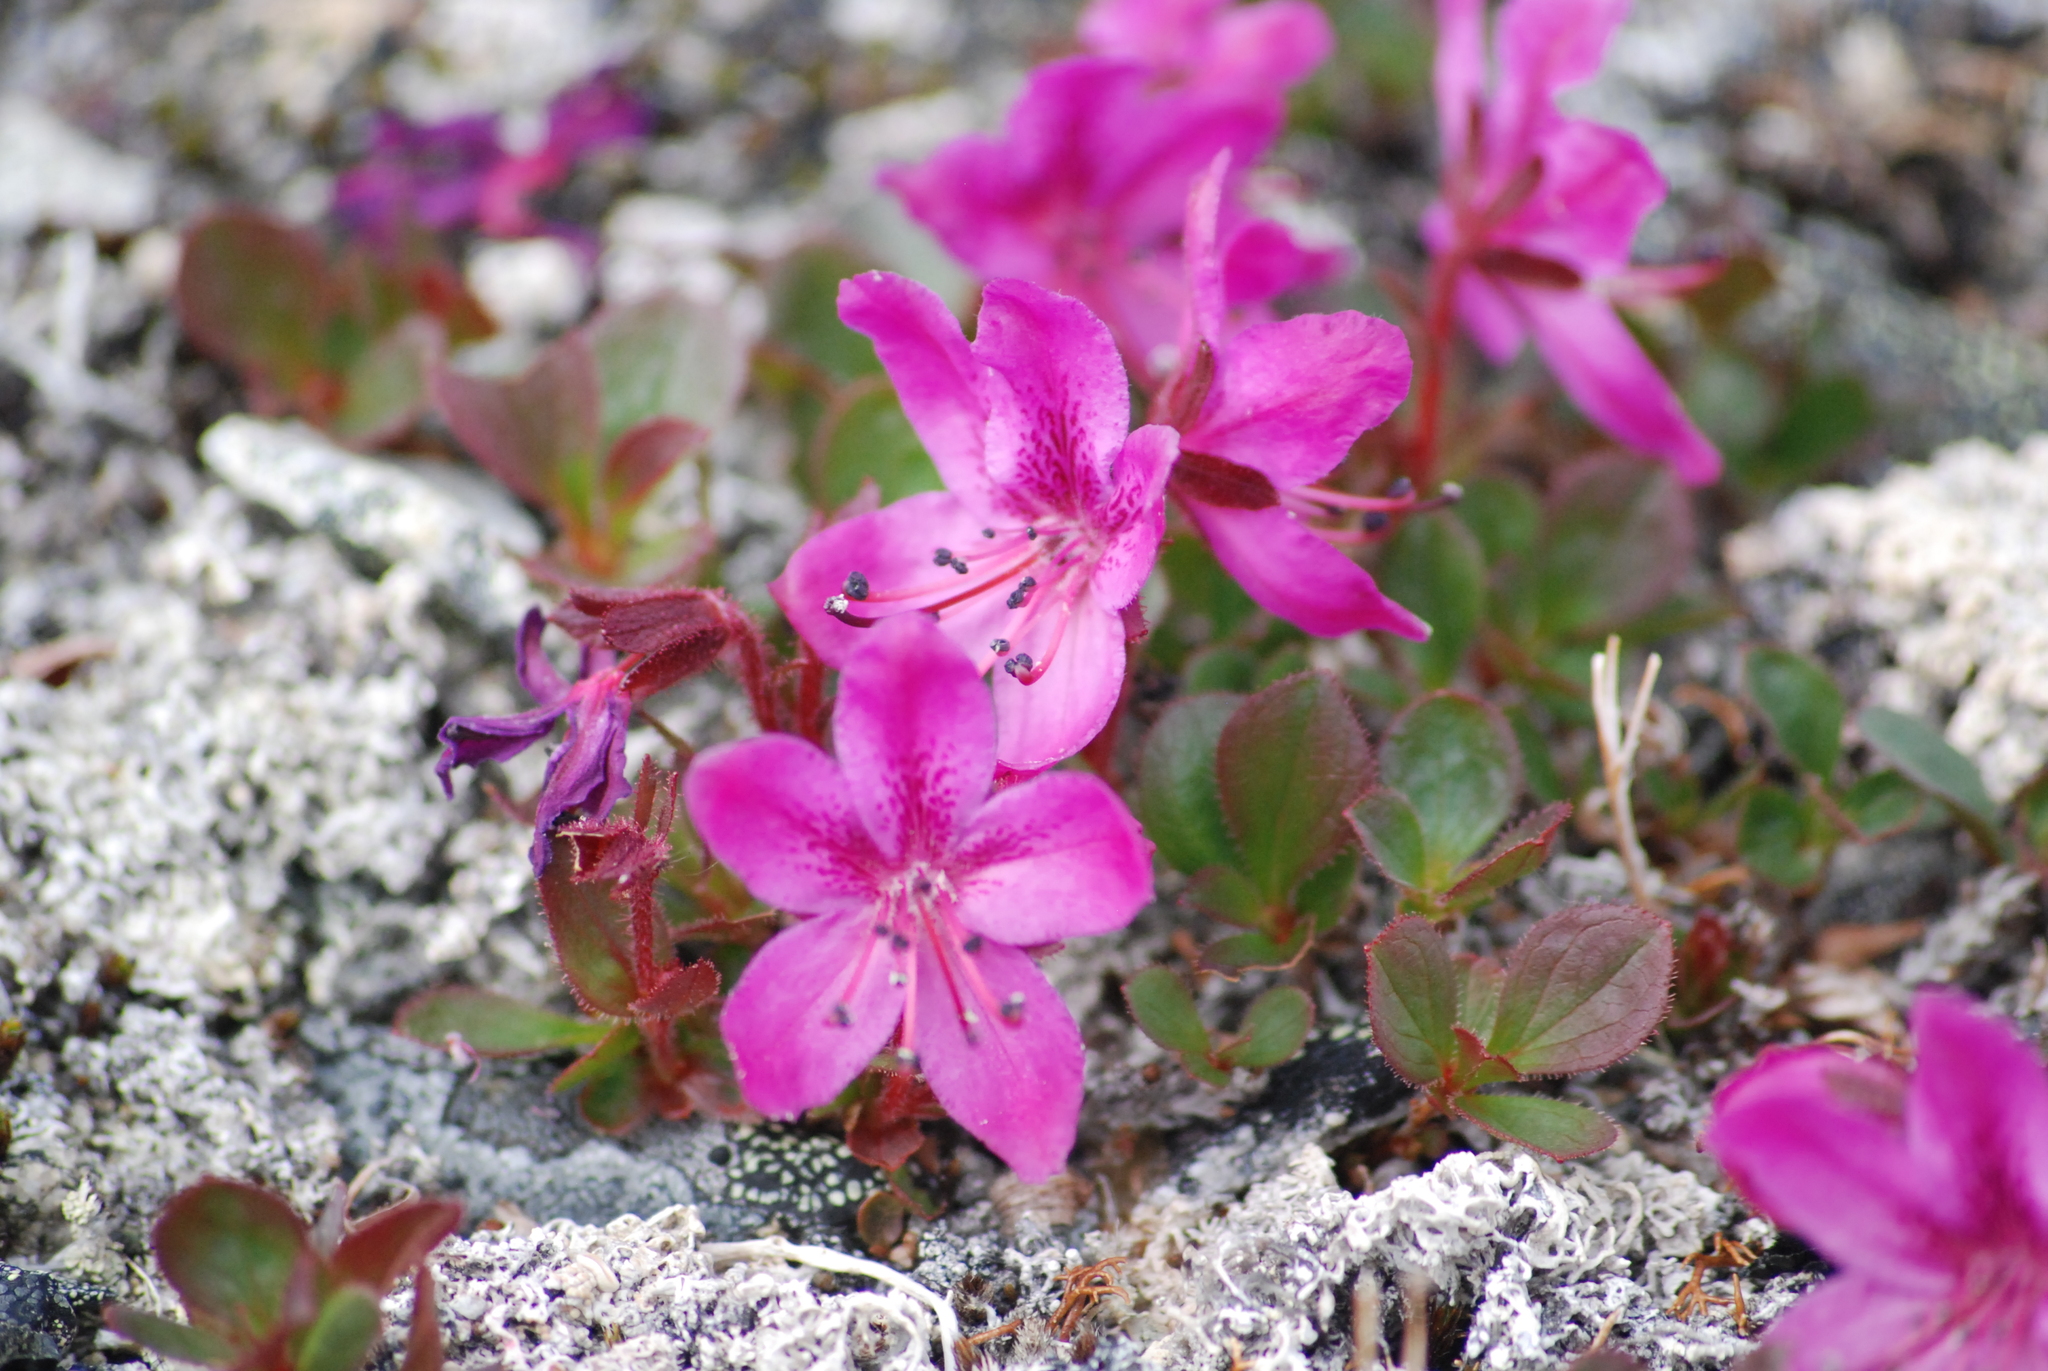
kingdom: Plantae
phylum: Tracheophyta
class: Magnoliopsida
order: Ericales
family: Ericaceae
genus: Rhododendron
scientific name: Rhododendron camtschaticum
